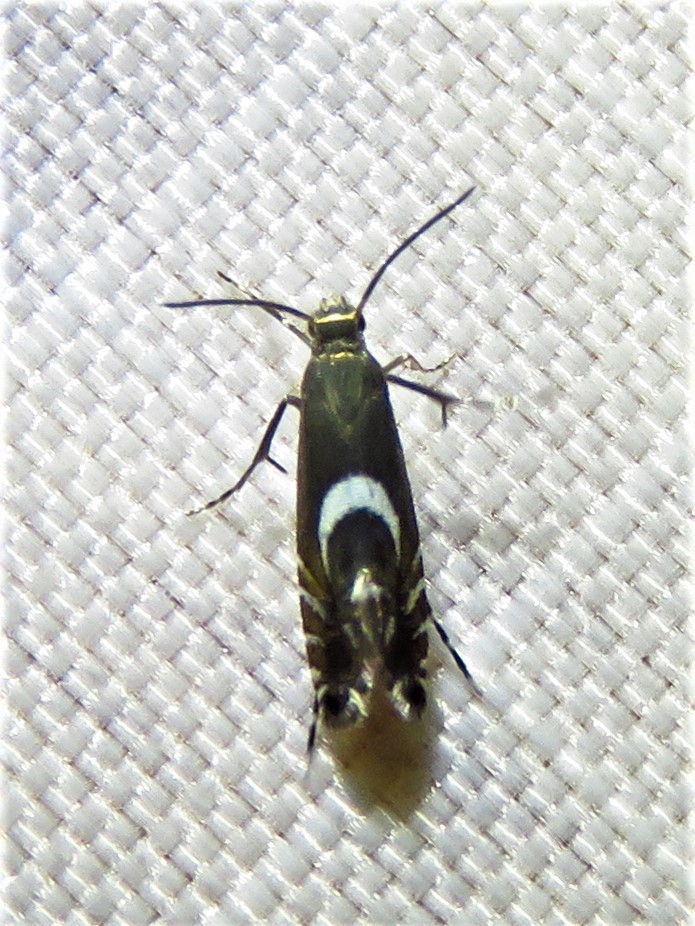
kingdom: Animalia
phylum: Arthropoda
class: Insecta
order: Lepidoptera
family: Glyphipterigidae
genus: Glyphipterix
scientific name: Glyphipterix Diploschizia impigritella
